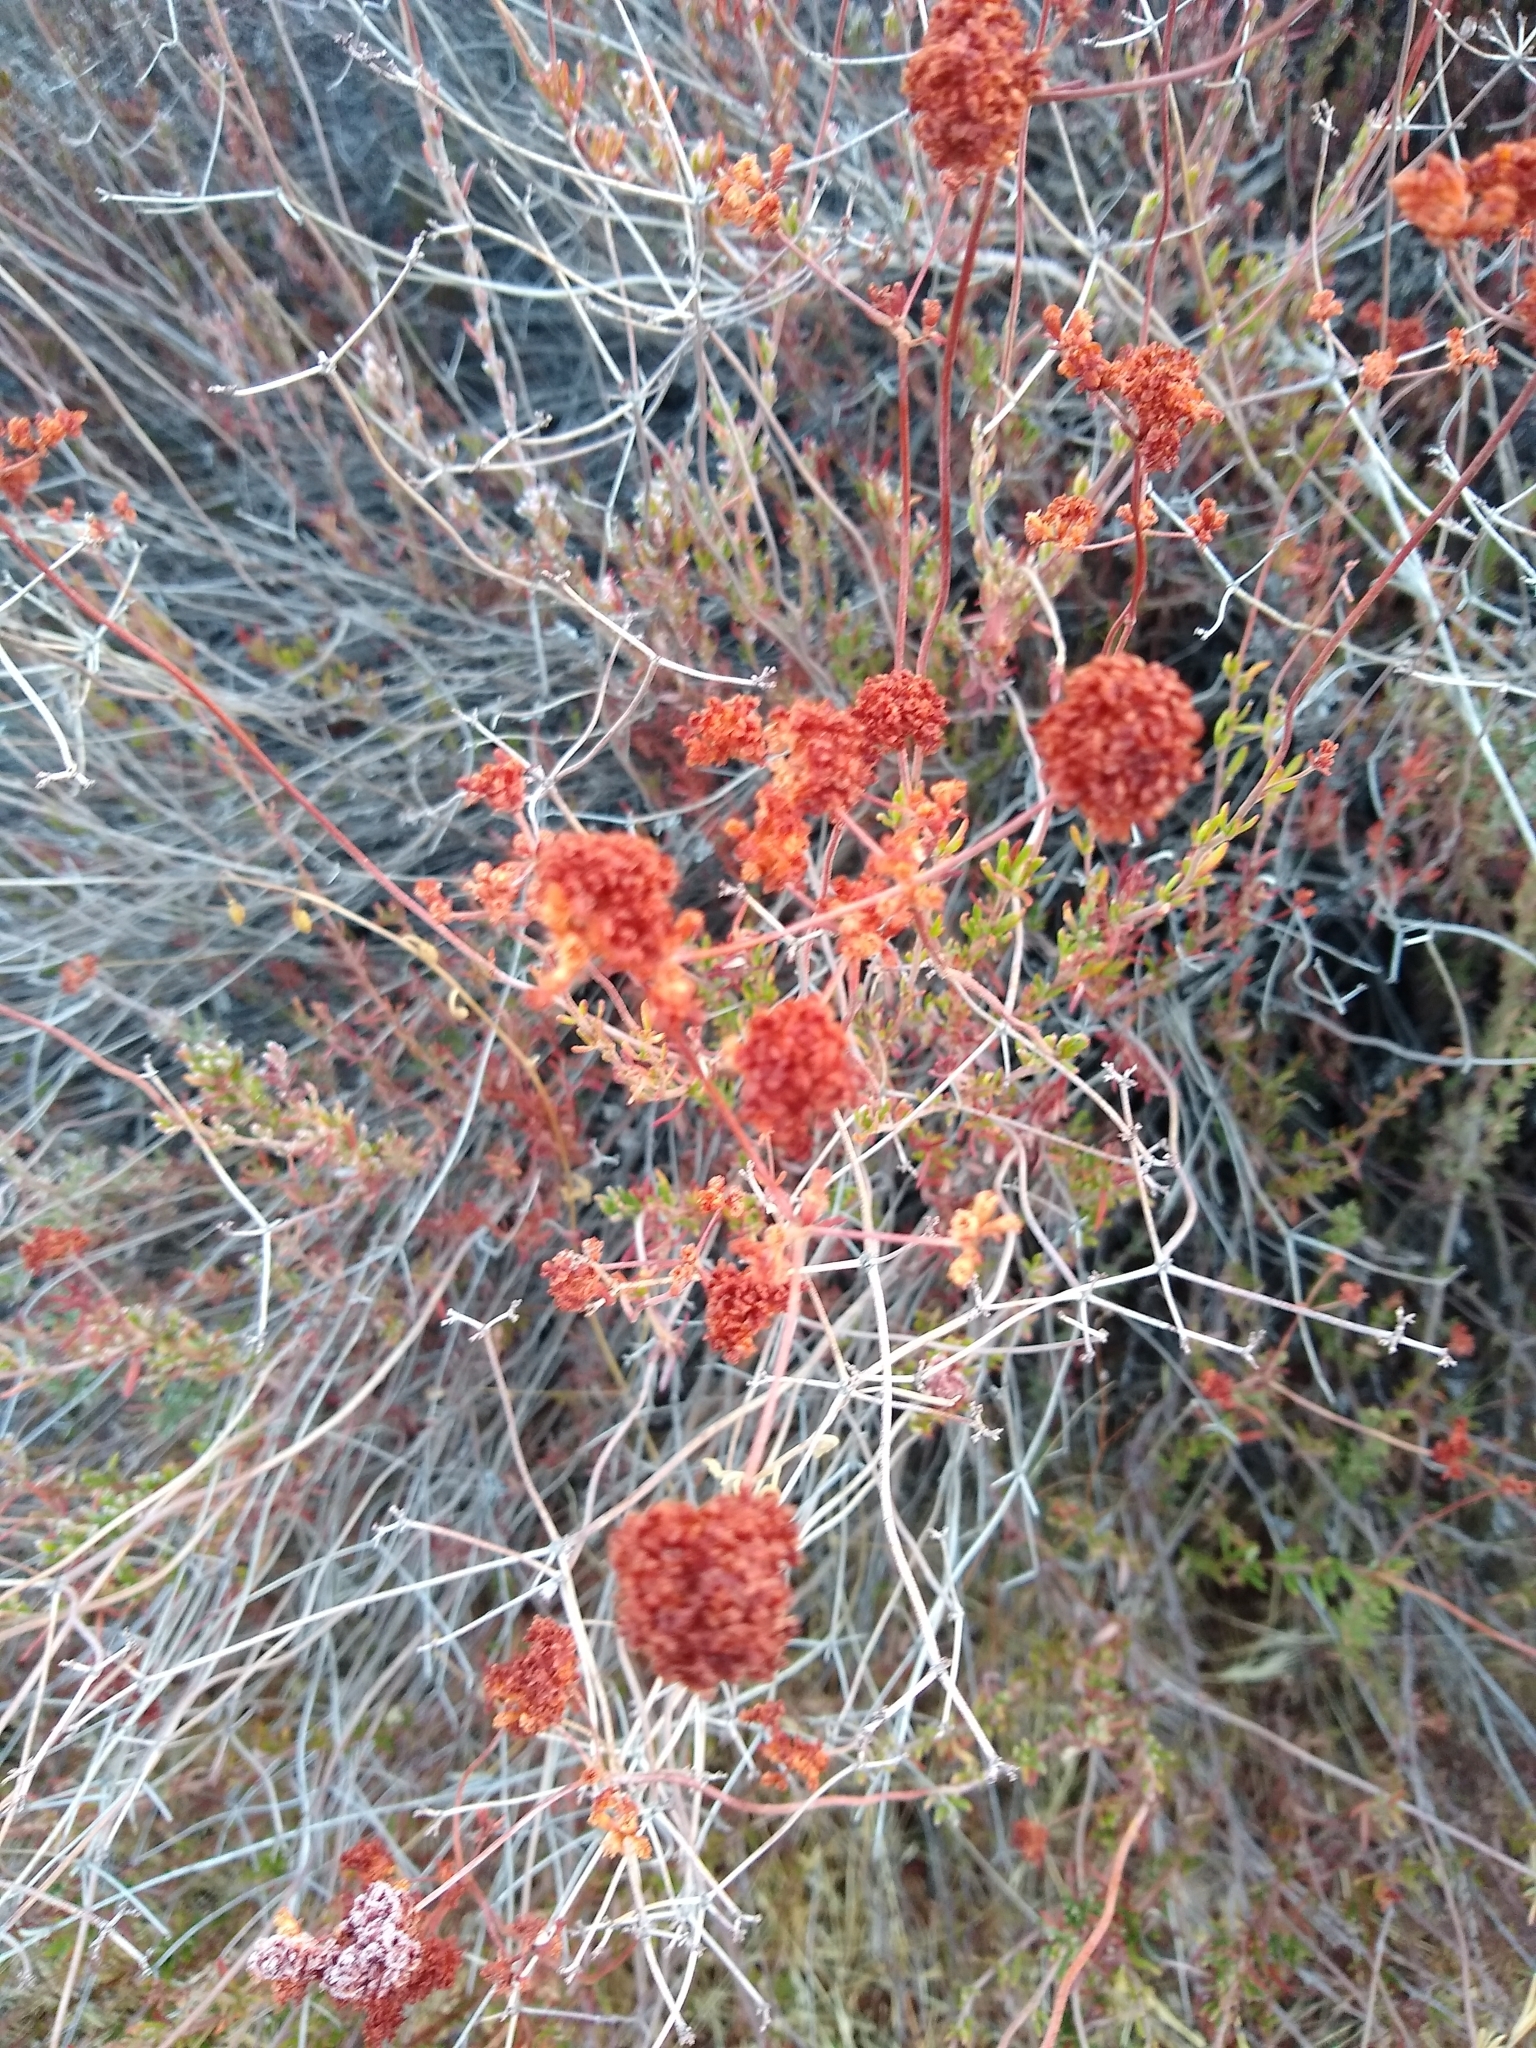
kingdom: Plantae
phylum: Tracheophyta
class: Magnoliopsida
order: Caryophyllales
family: Polygonaceae
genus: Eriogonum
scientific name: Eriogonum fasciculatum
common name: California wild buckwheat
